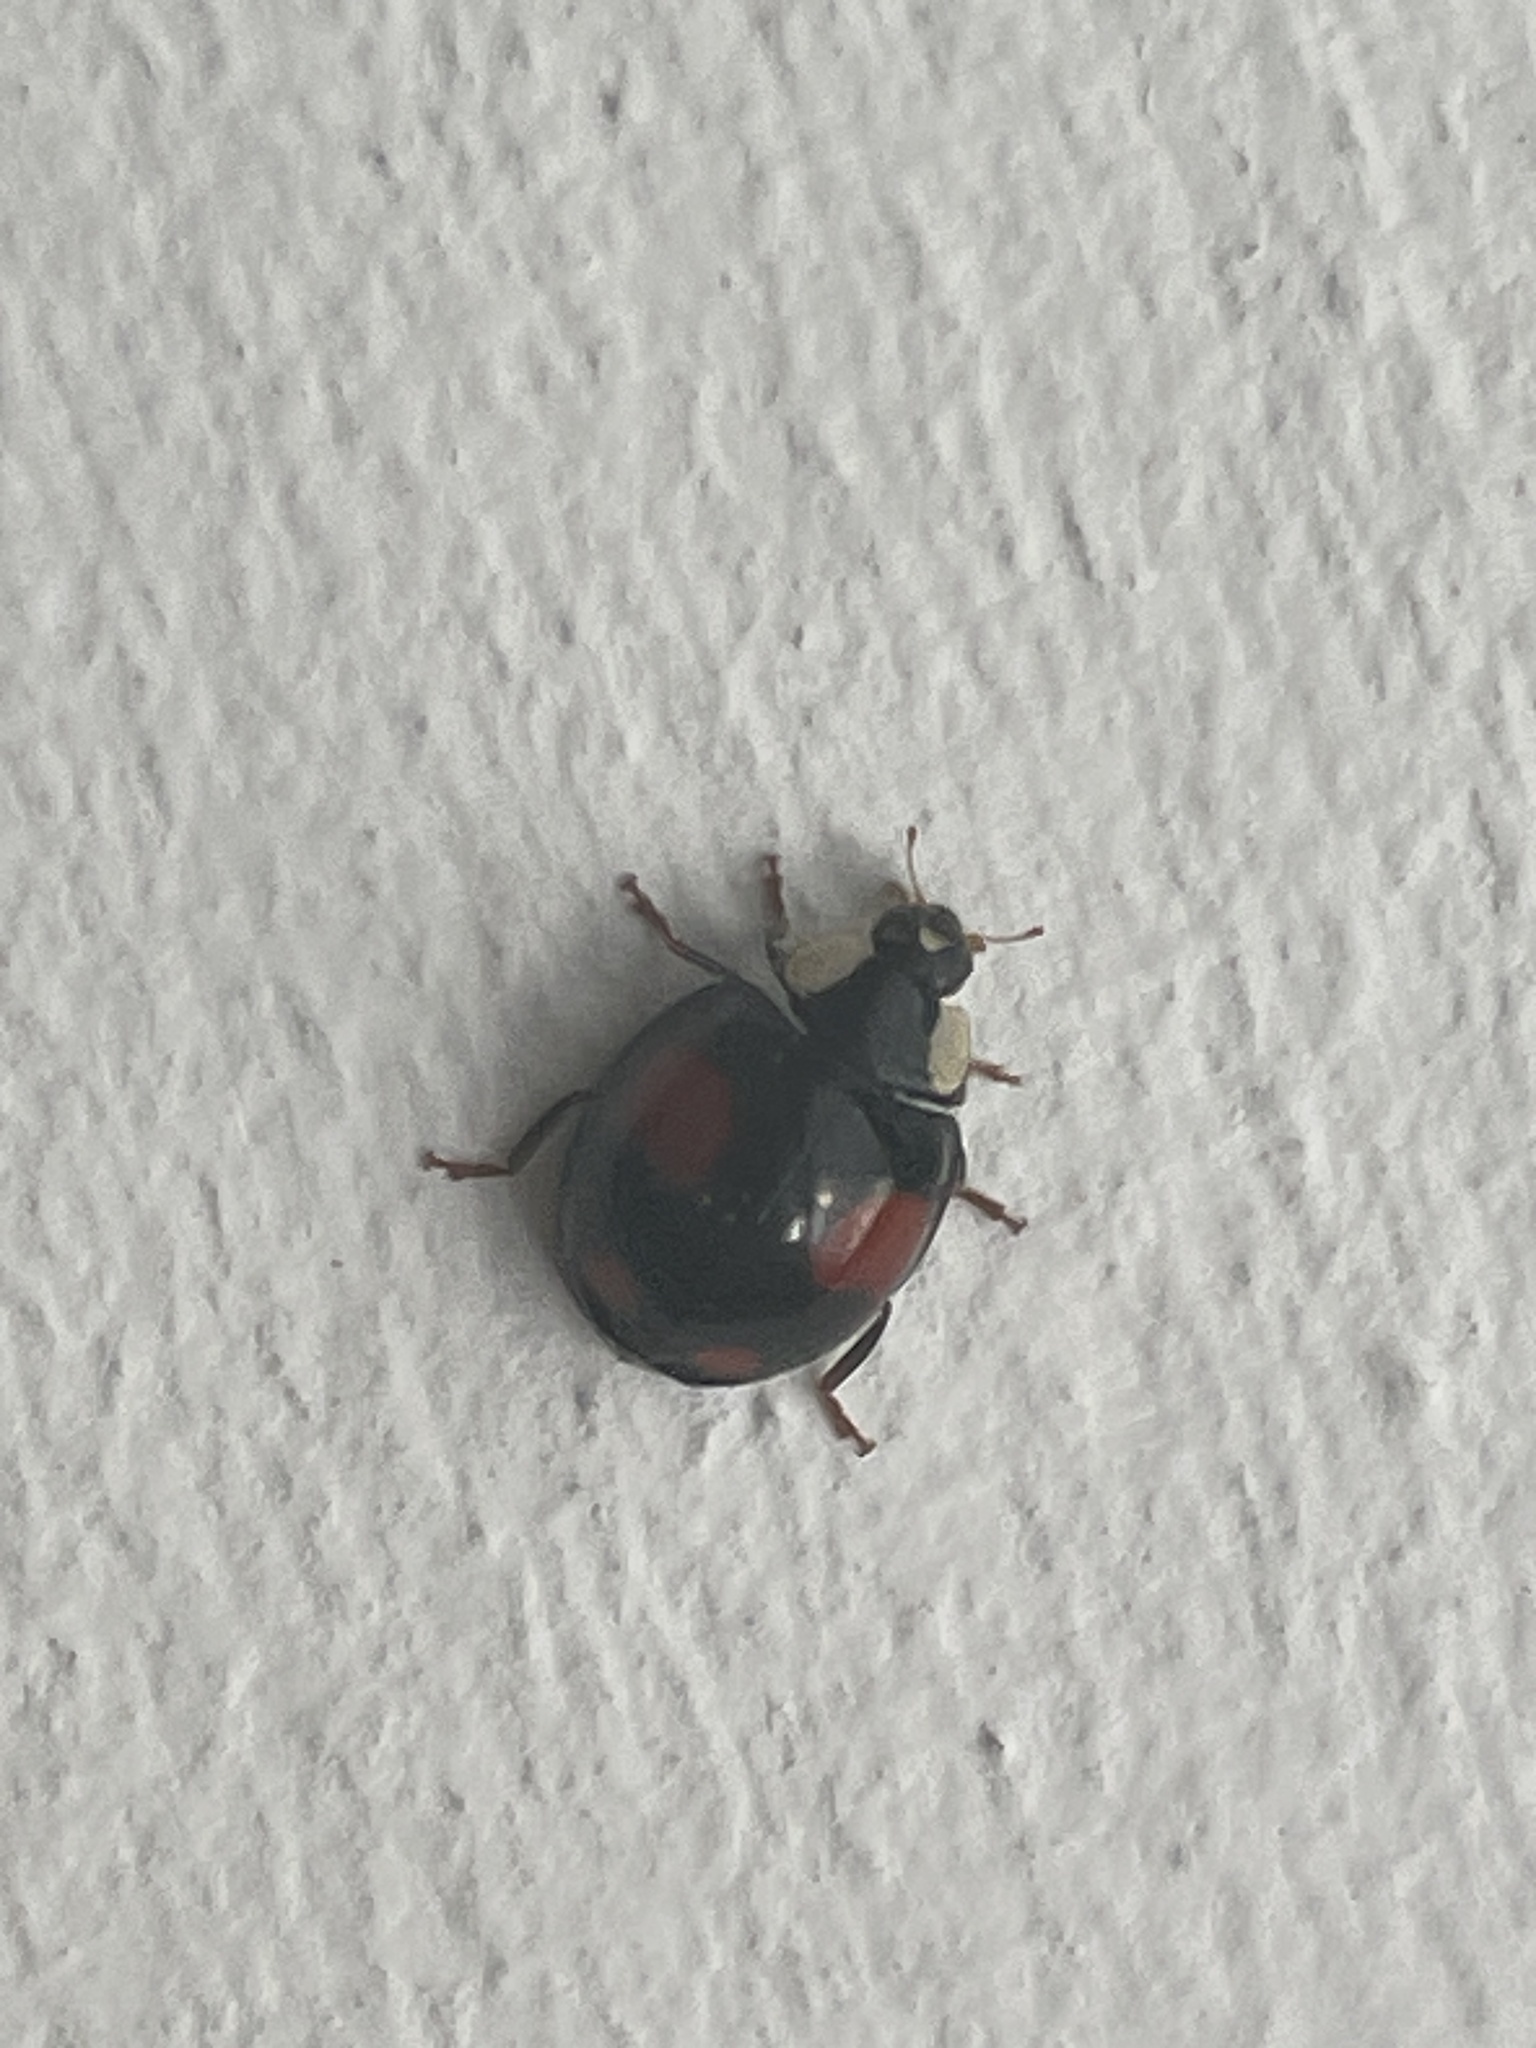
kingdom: Animalia
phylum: Arthropoda
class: Insecta
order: Coleoptera
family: Coccinellidae
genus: Harmonia
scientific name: Harmonia axyridis
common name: Harlequin ladybird
